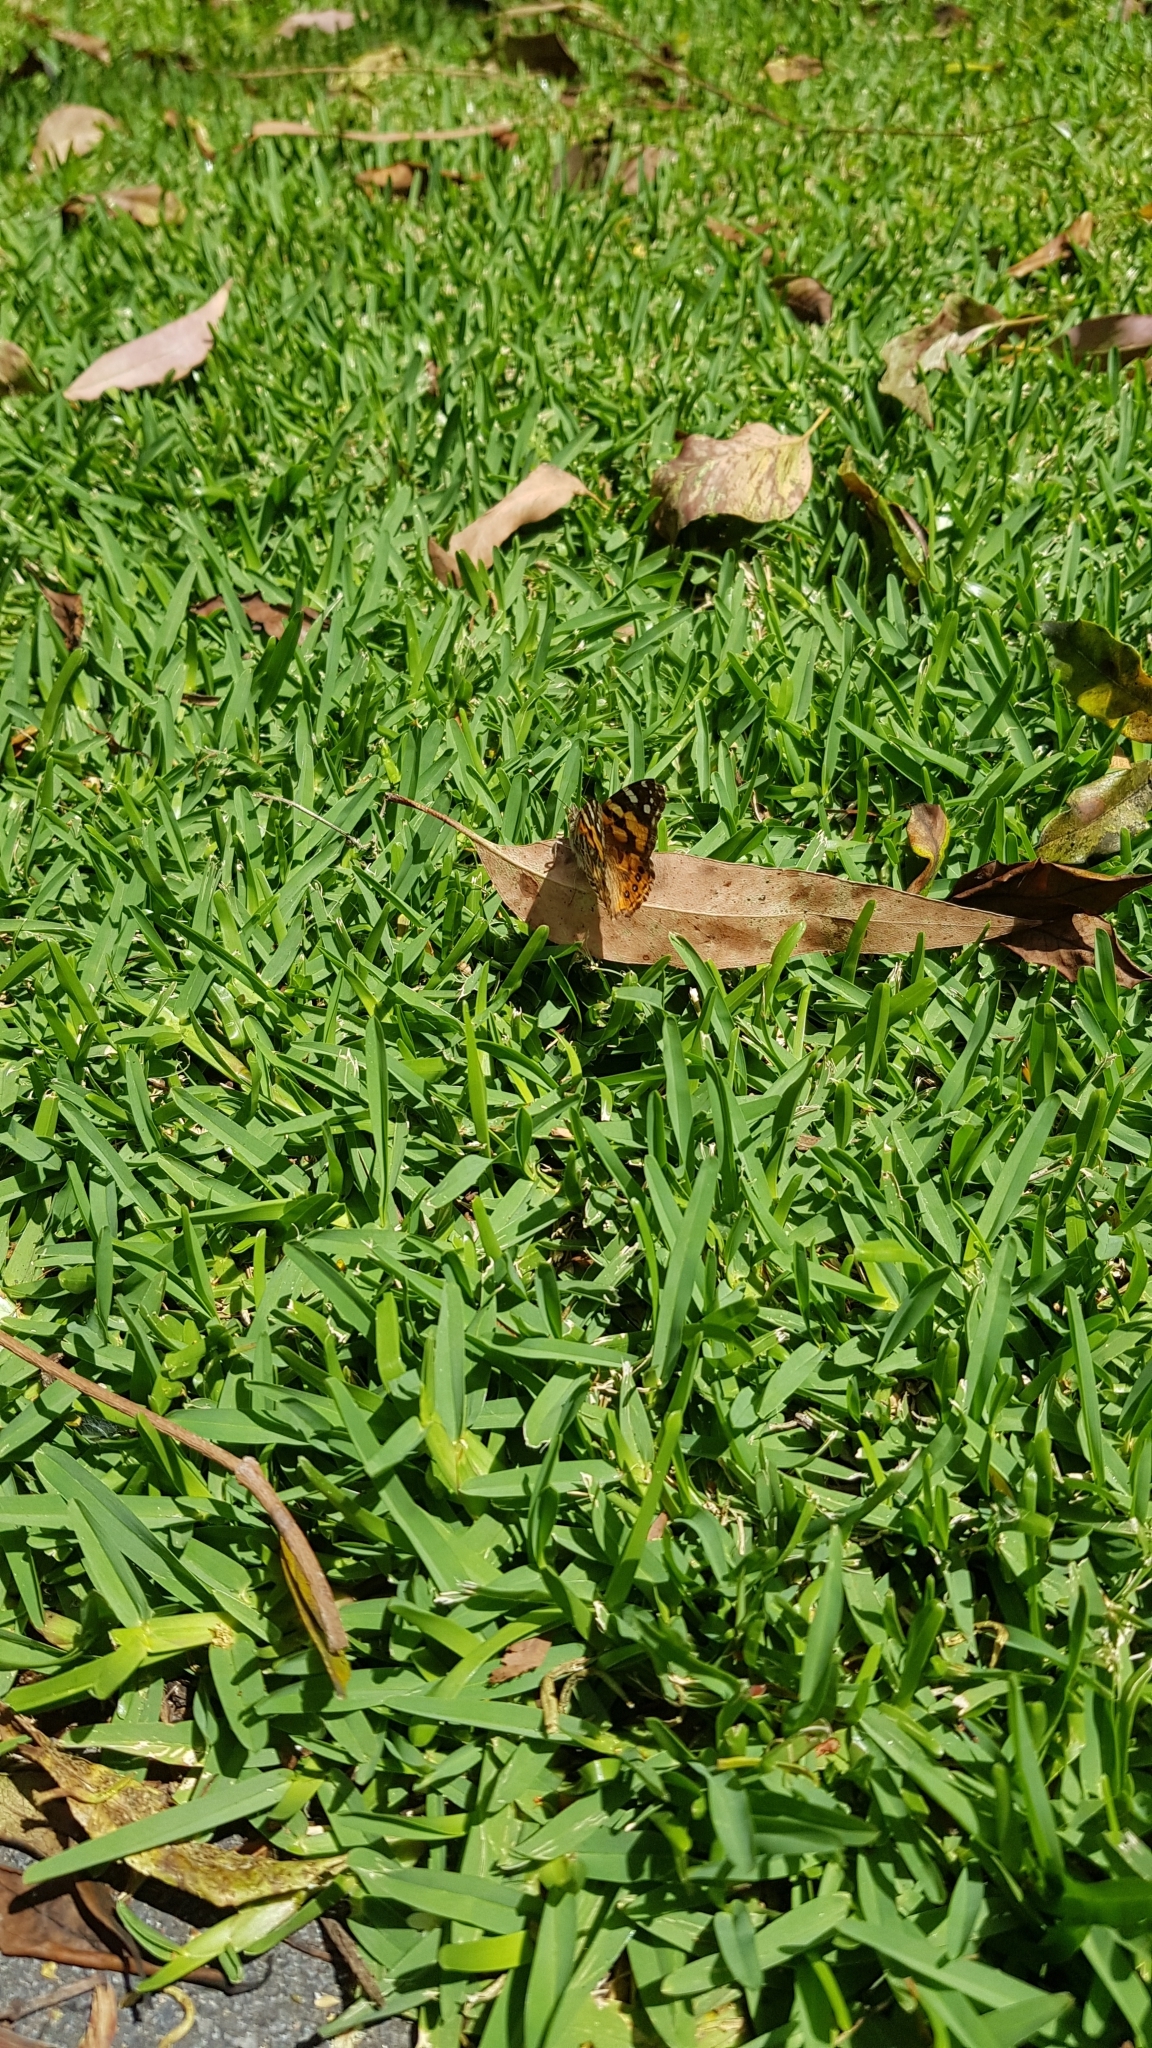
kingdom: Animalia
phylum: Arthropoda
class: Insecta
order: Lepidoptera
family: Nymphalidae
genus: Vanessa
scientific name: Vanessa kershawi
